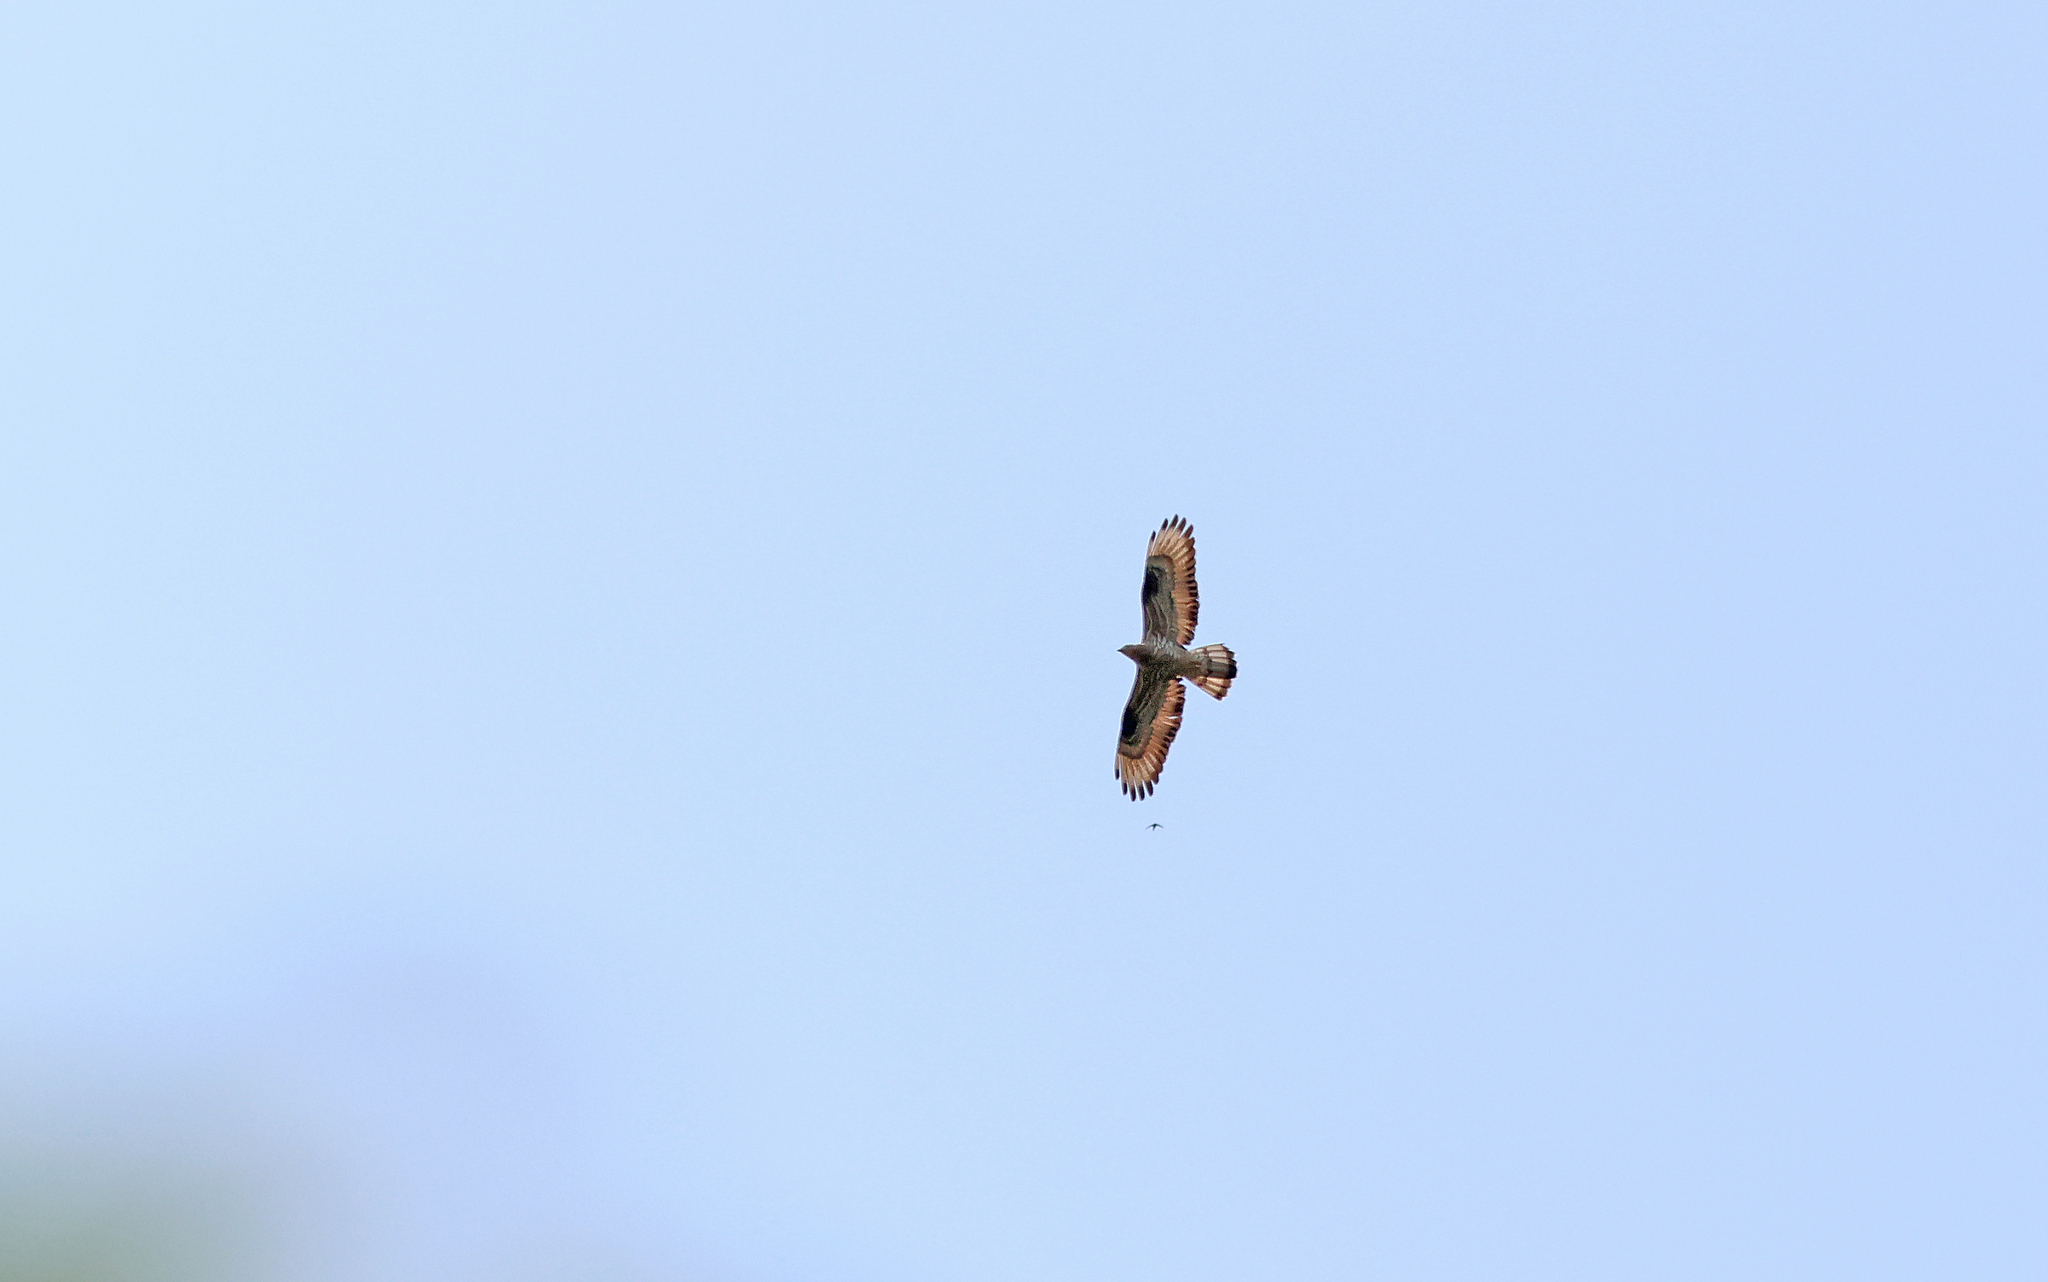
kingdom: Animalia
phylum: Chordata
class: Aves
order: Accipitriformes
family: Accipitridae
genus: Pernis
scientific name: Pernis apivorus
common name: European honey buzzard
